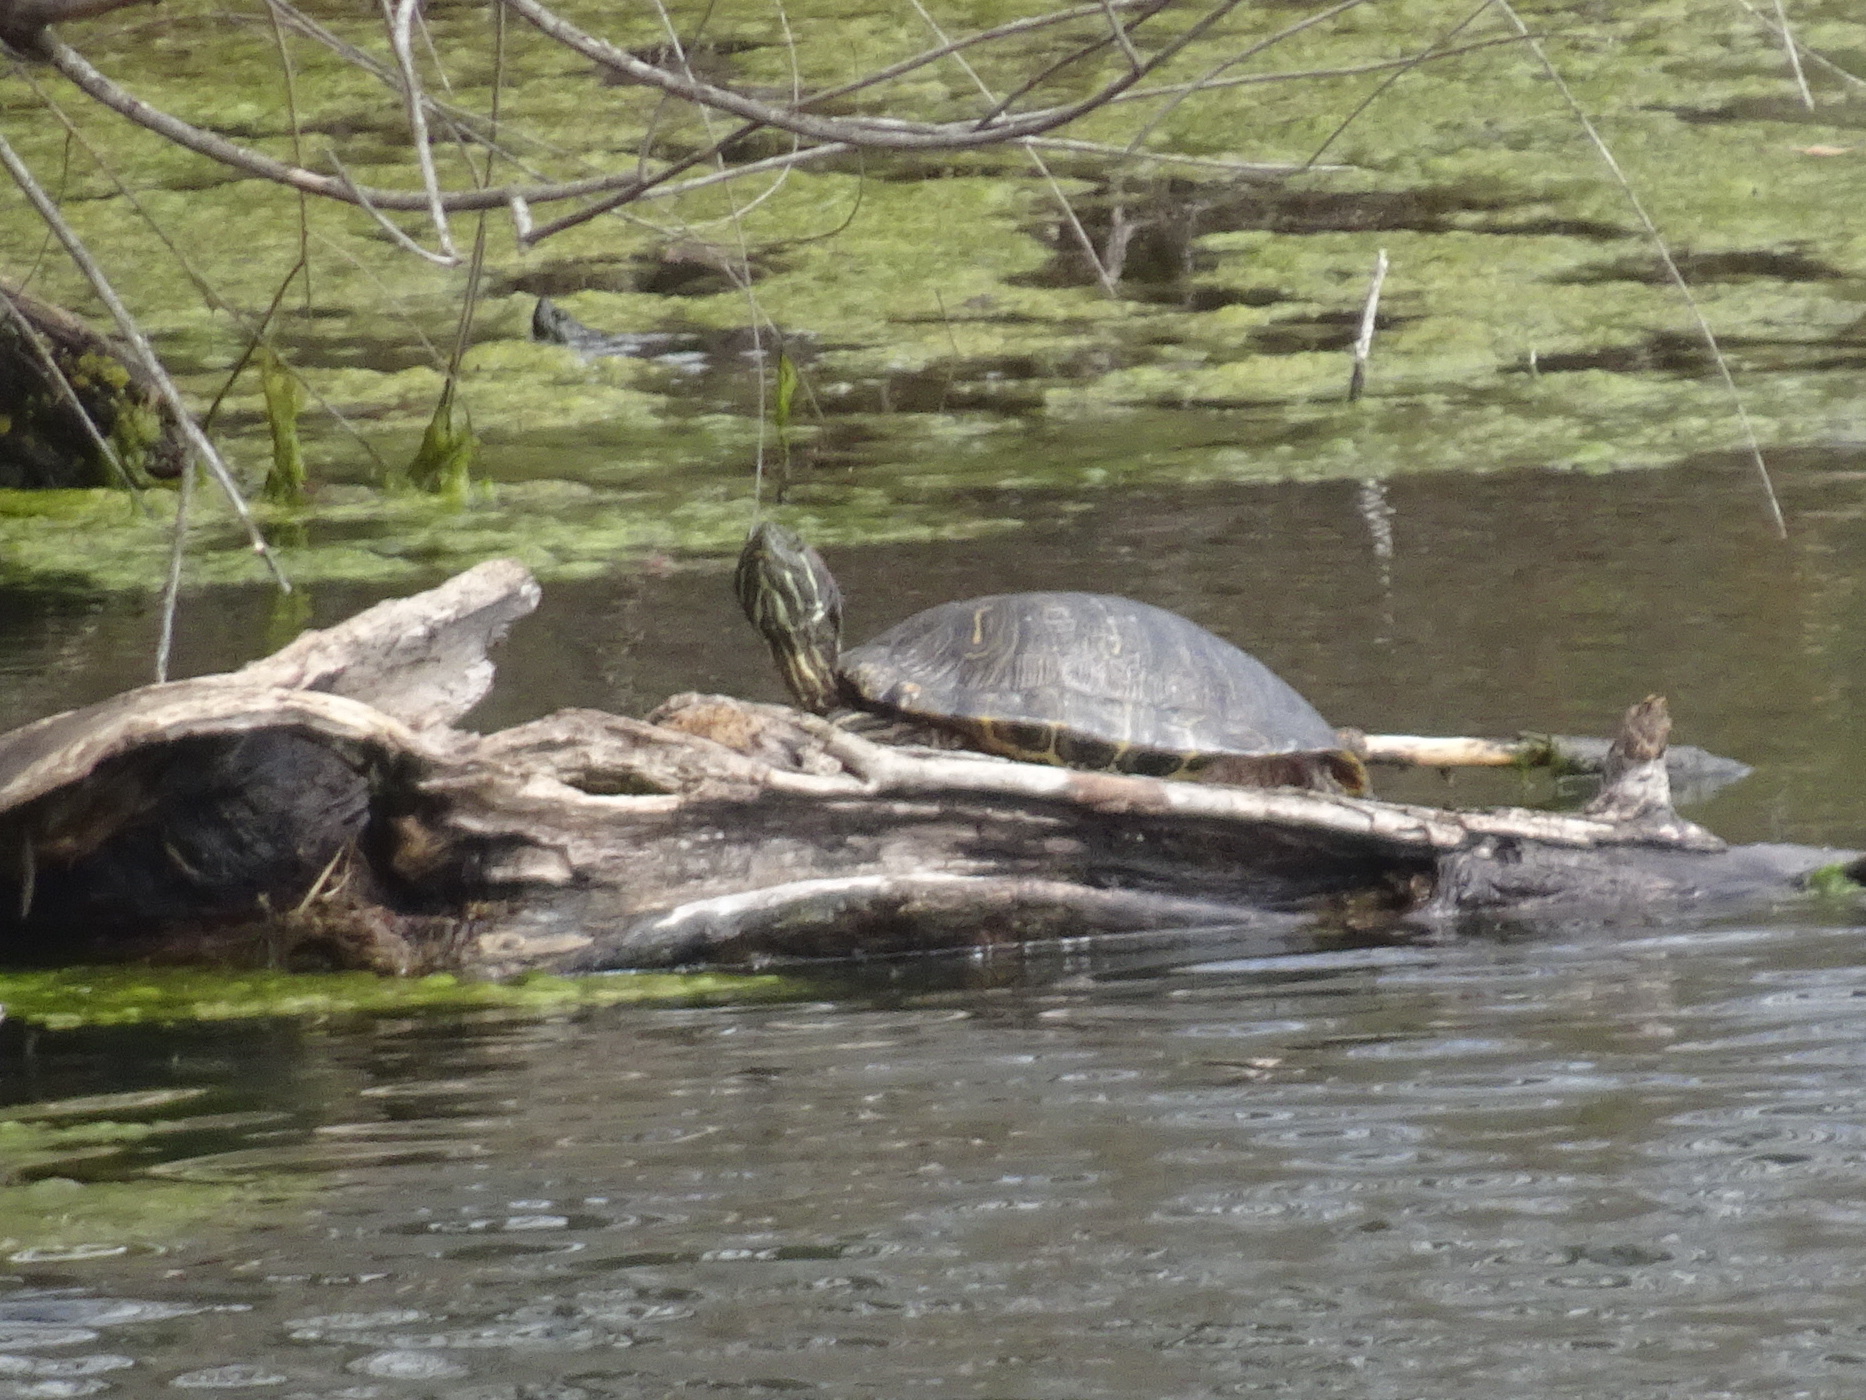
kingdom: Animalia
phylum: Chordata
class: Testudines
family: Emydidae
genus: Trachemys
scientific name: Trachemys scripta
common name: Slider
